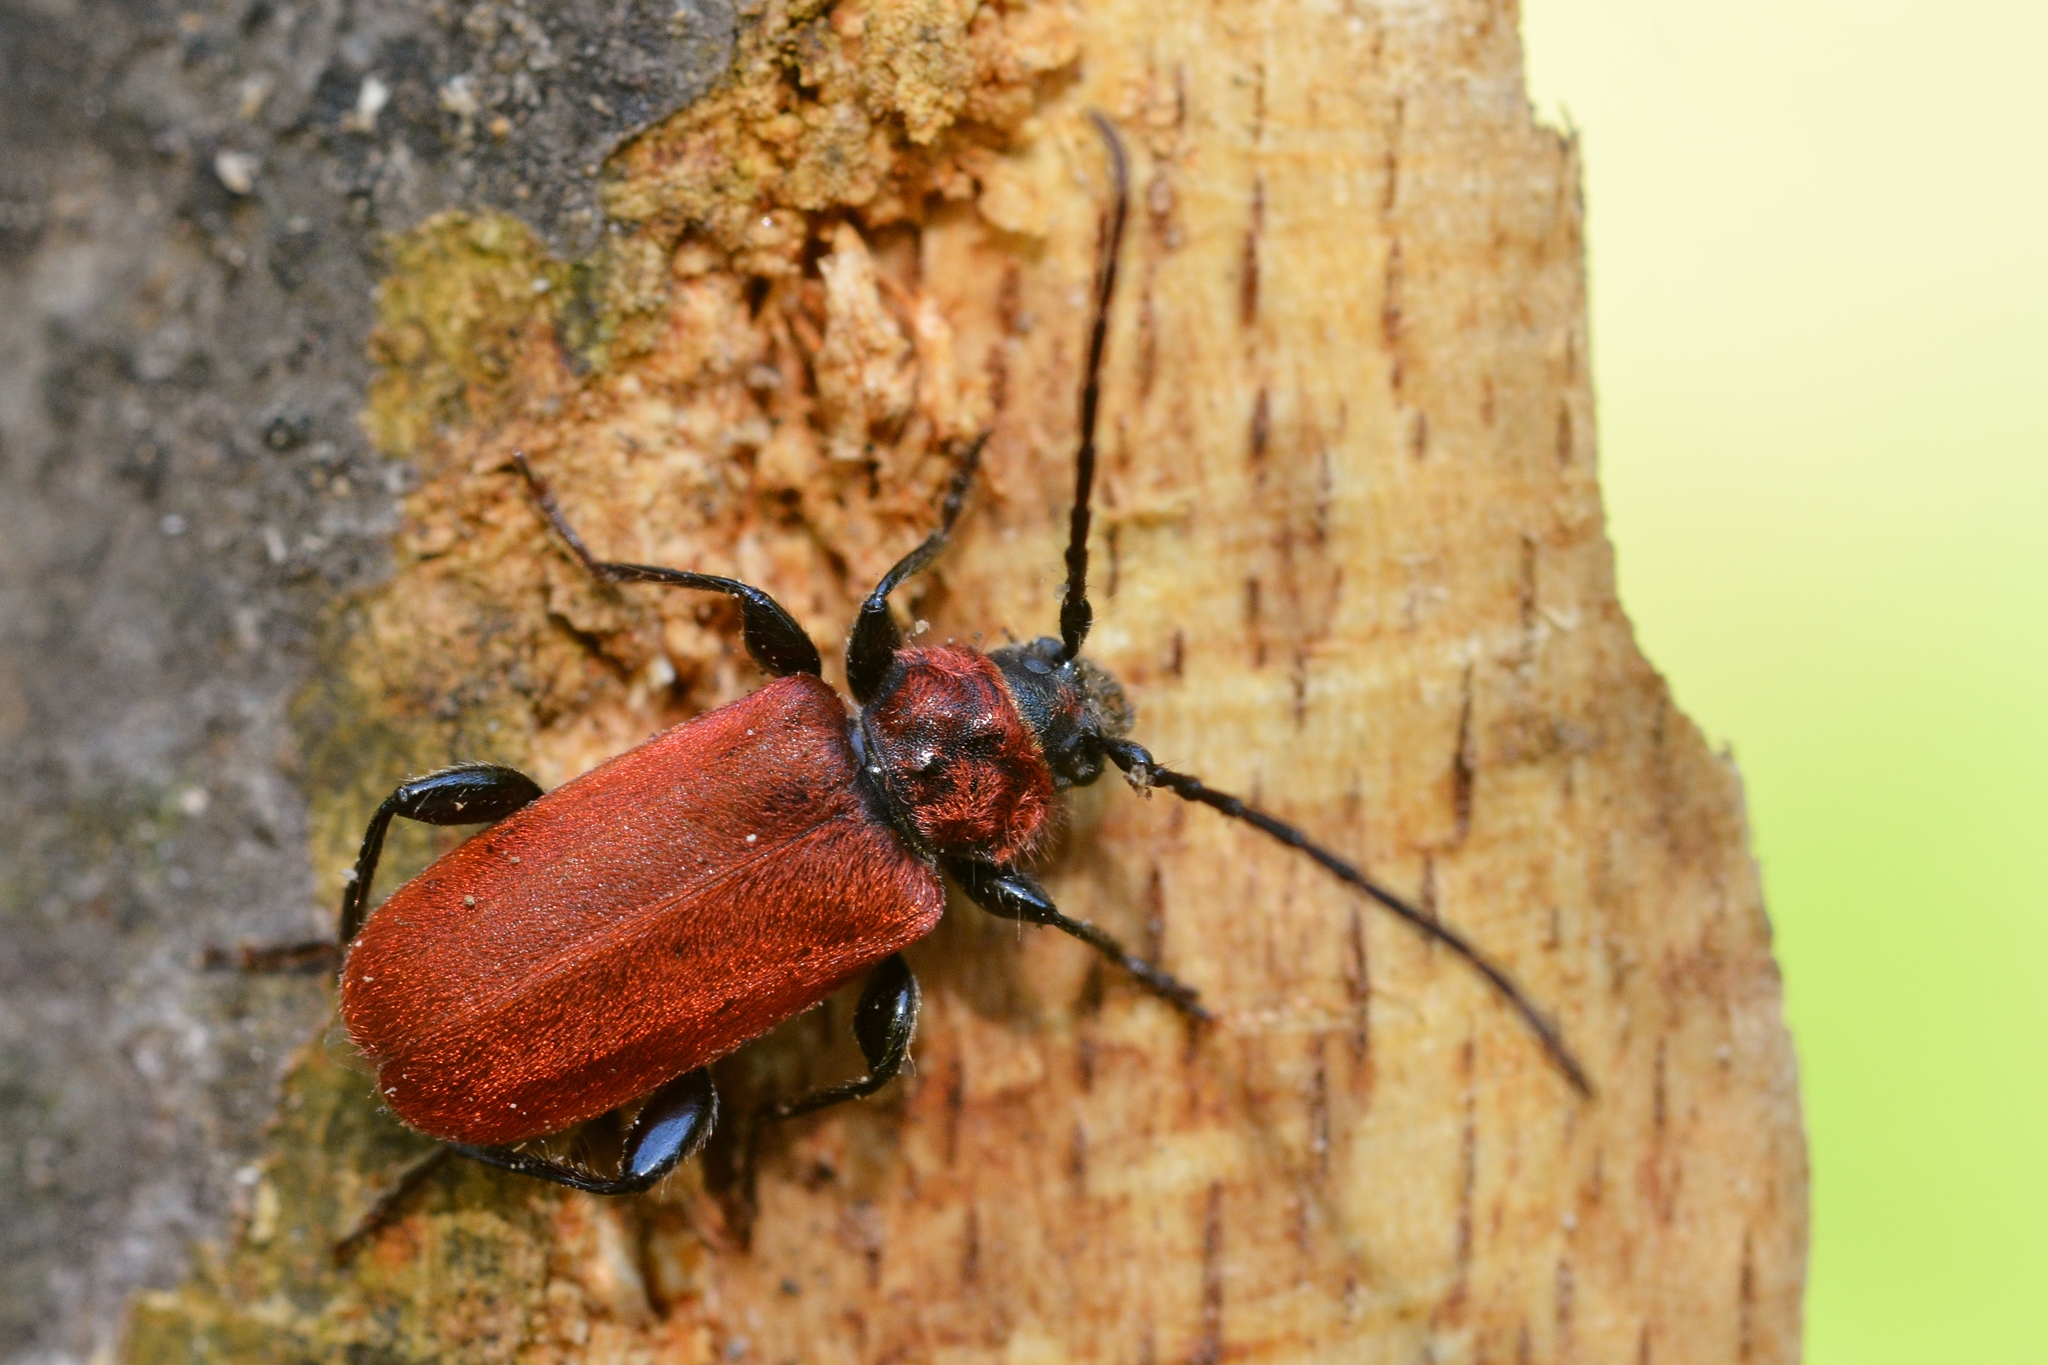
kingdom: Animalia
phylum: Arthropoda
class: Insecta
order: Coleoptera
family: Cerambycidae
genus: Pyrrhidium
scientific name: Pyrrhidium sanguineum
